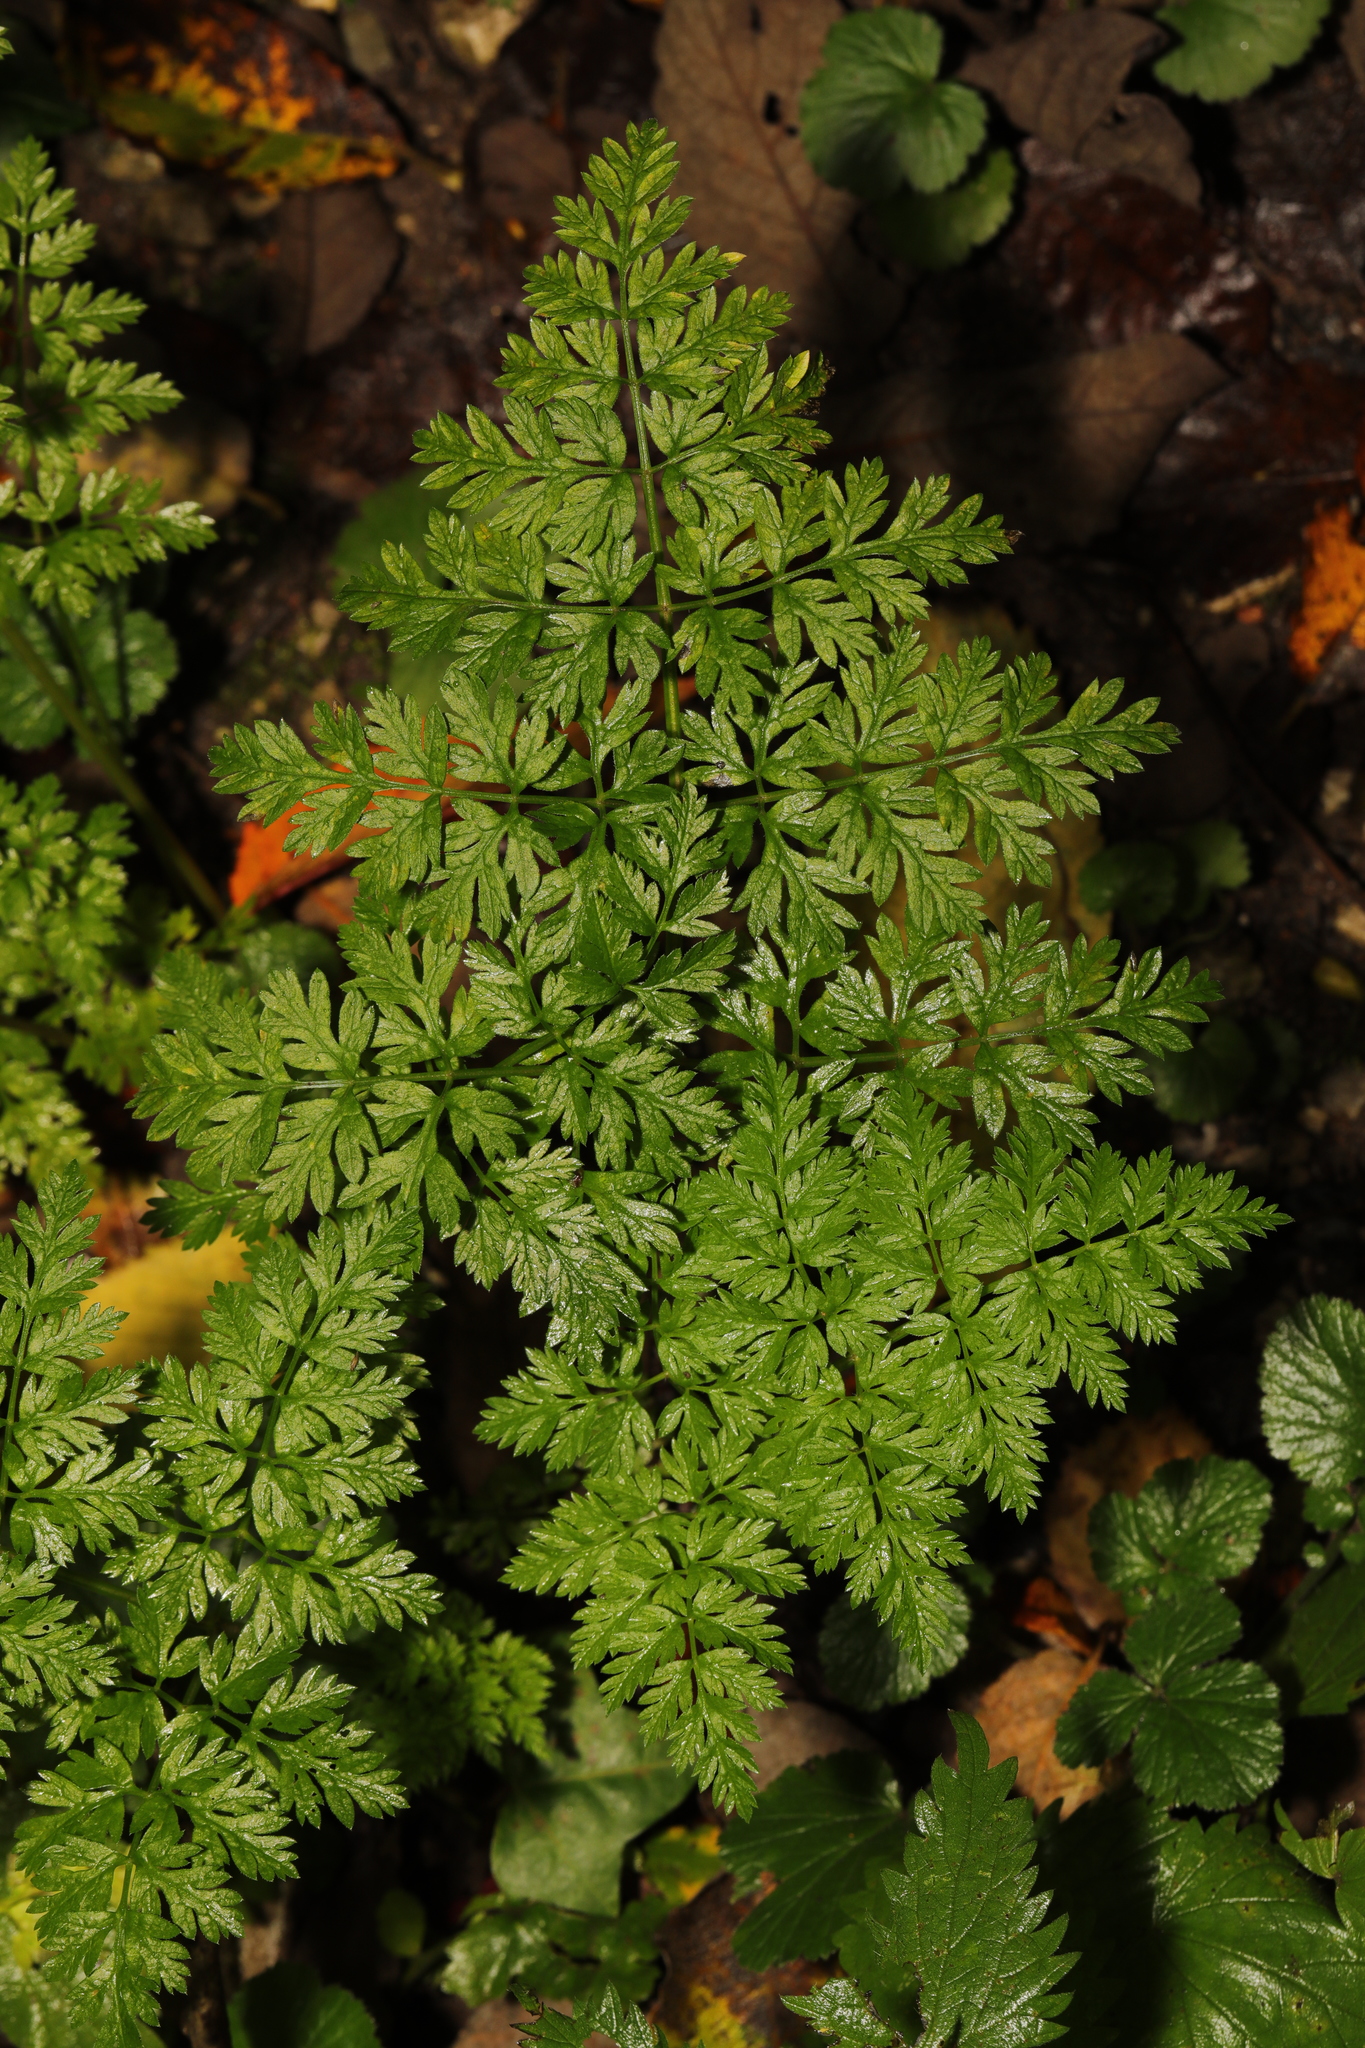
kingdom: Plantae
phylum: Tracheophyta
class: Magnoliopsida
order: Apiales
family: Apiaceae
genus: Anthriscus
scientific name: Anthriscus sylvestris
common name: Cow parsley
